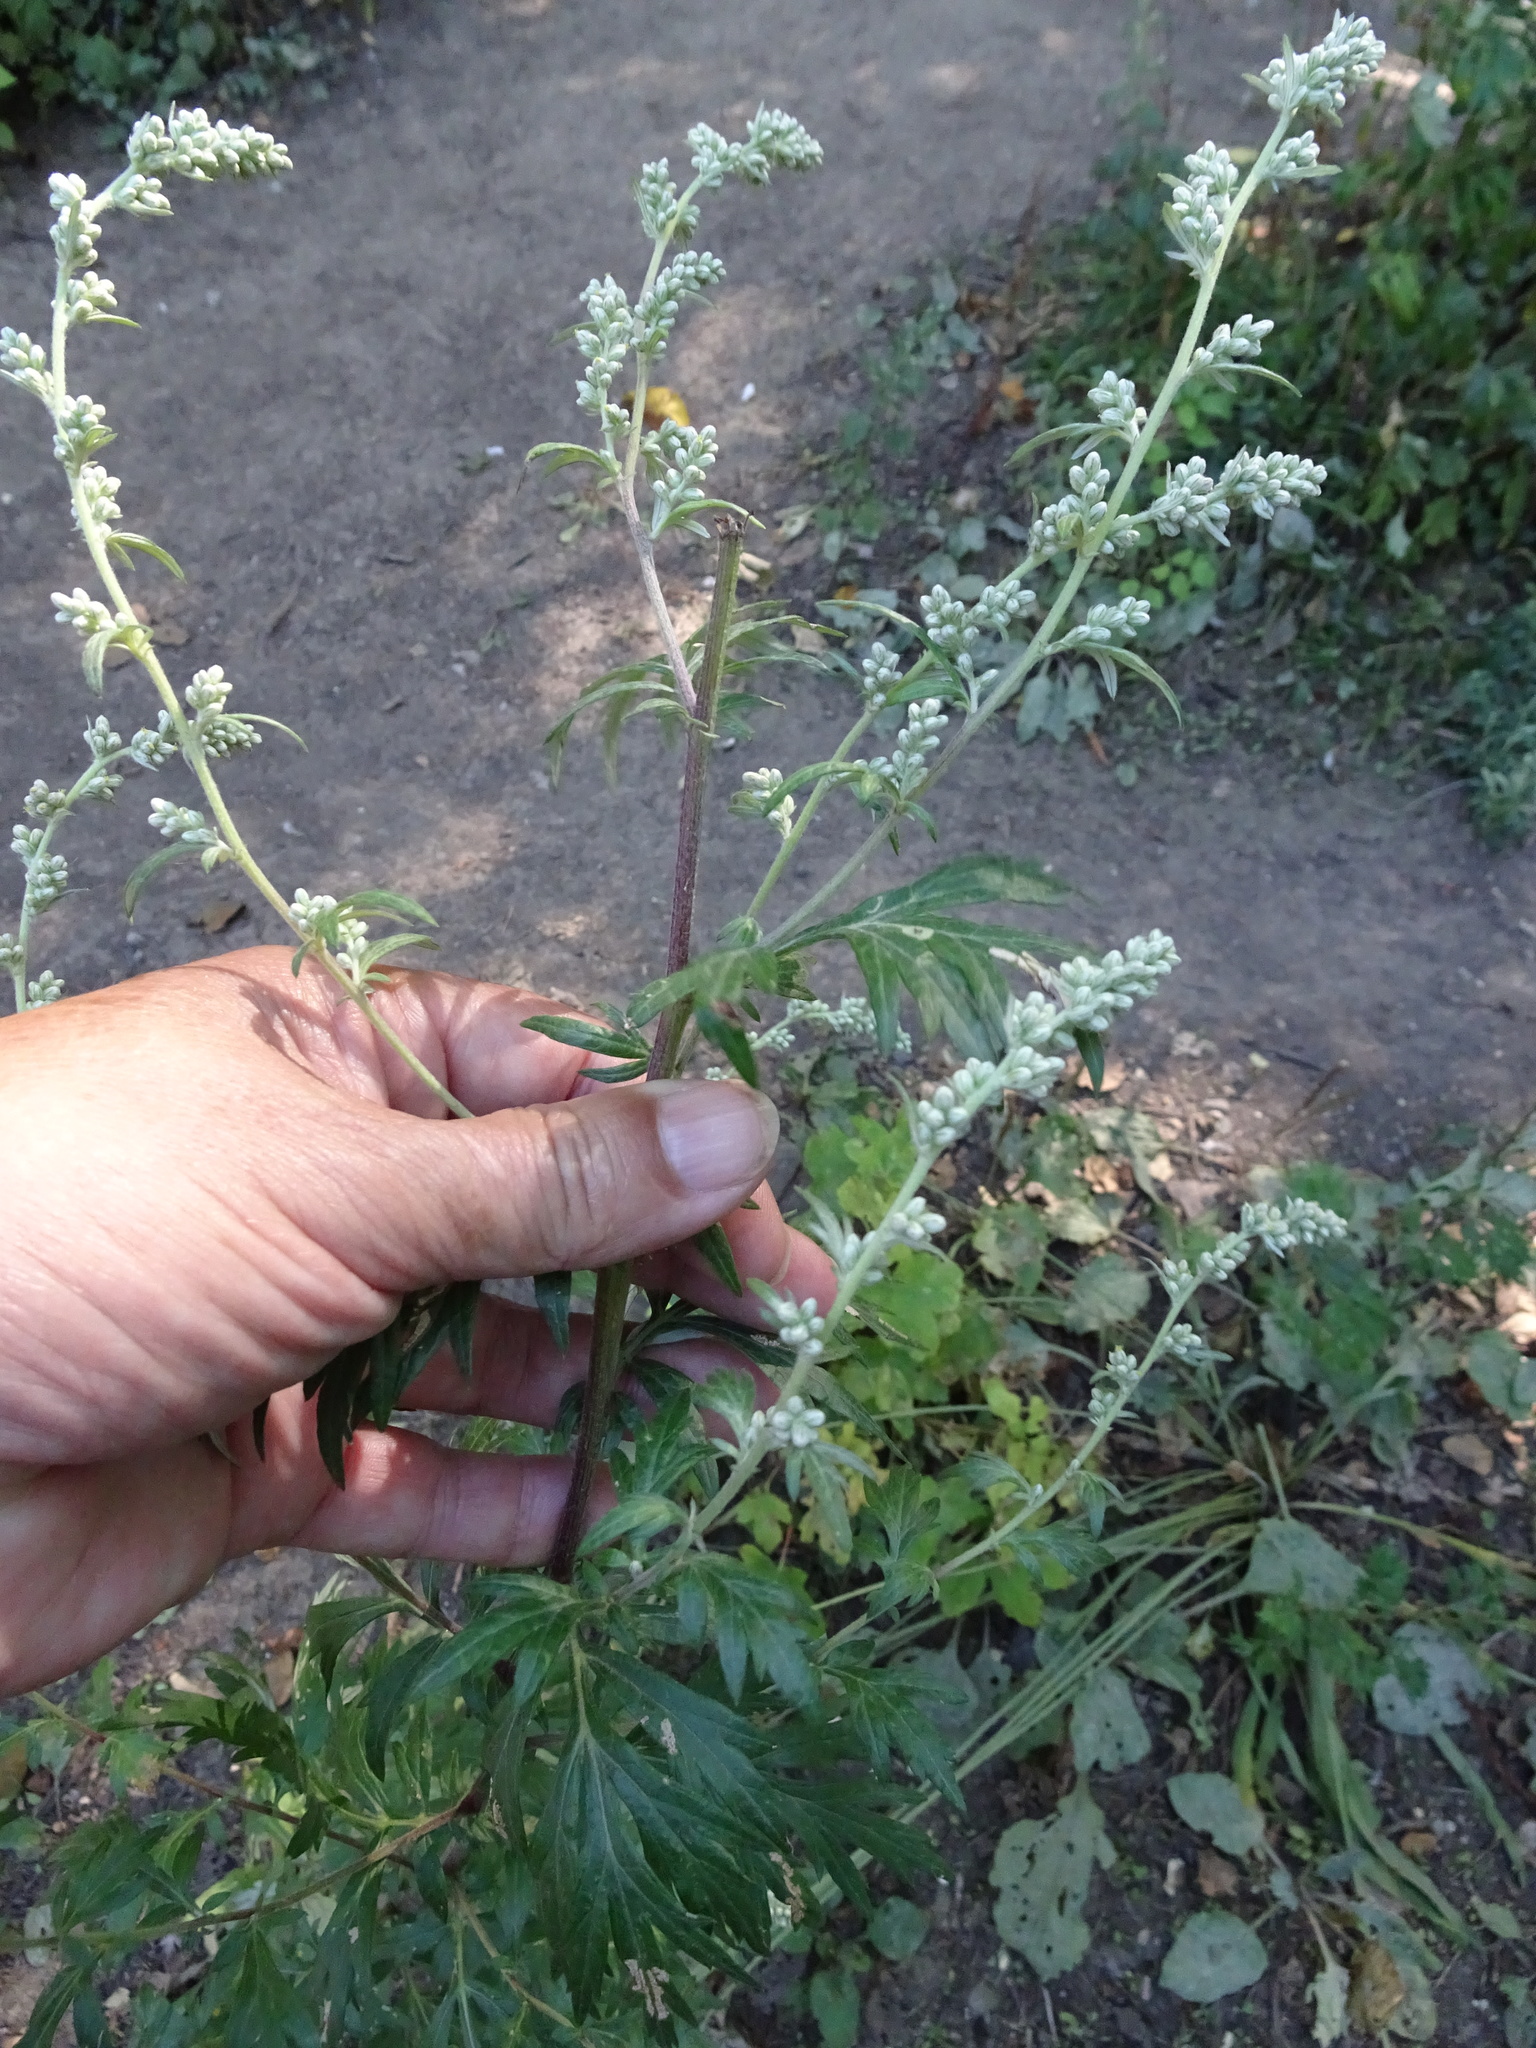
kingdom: Plantae
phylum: Tracheophyta
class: Magnoliopsida
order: Asterales
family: Asteraceae
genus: Artemisia
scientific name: Artemisia vulgaris
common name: Mugwort
